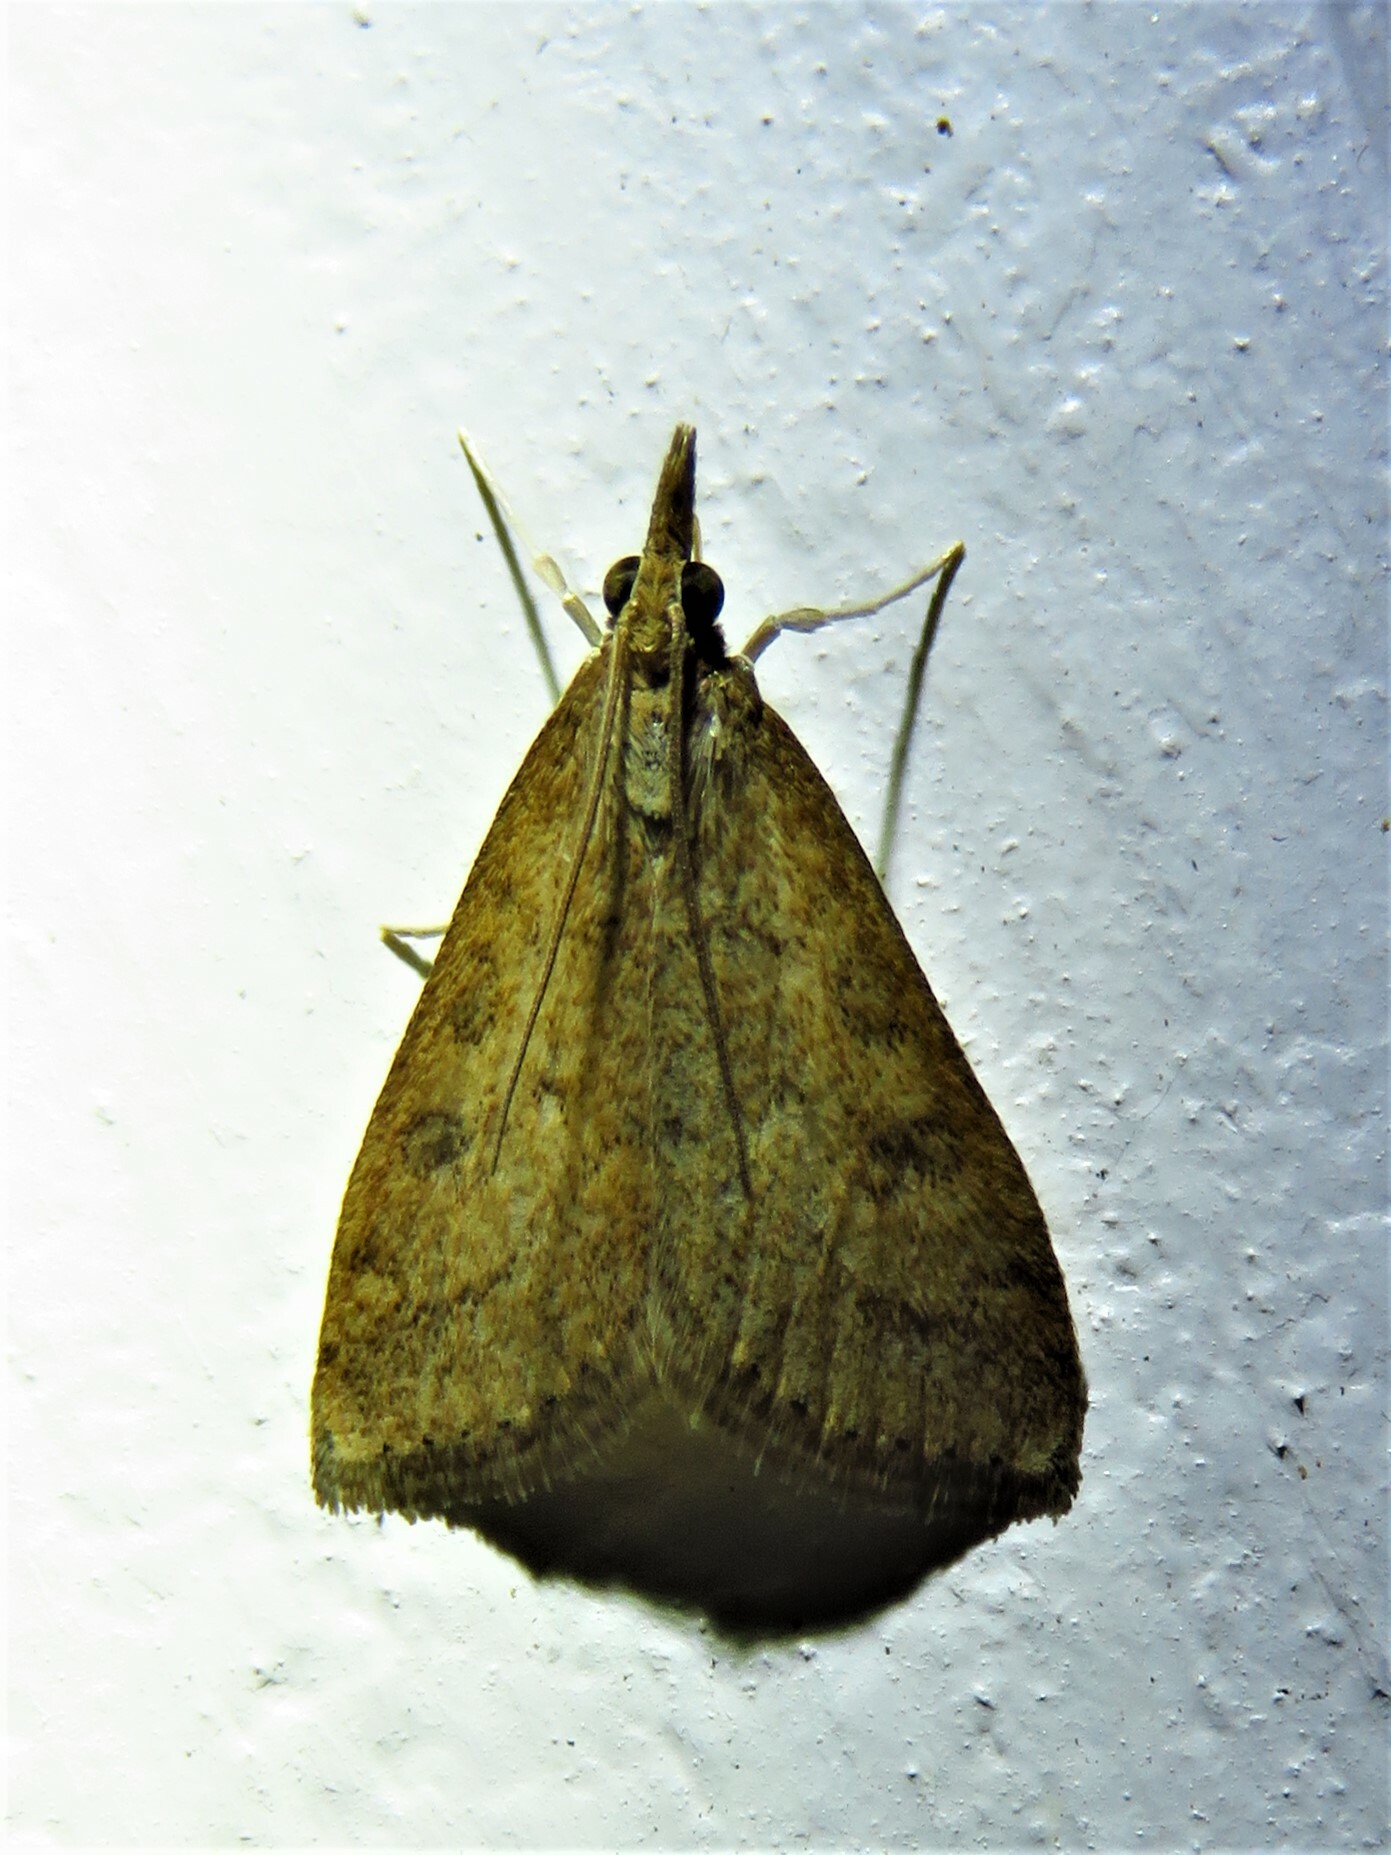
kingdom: Animalia
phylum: Arthropoda
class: Insecta
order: Lepidoptera
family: Crambidae
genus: Udea
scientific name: Udea rubigalis
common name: Celery leaftier moth
